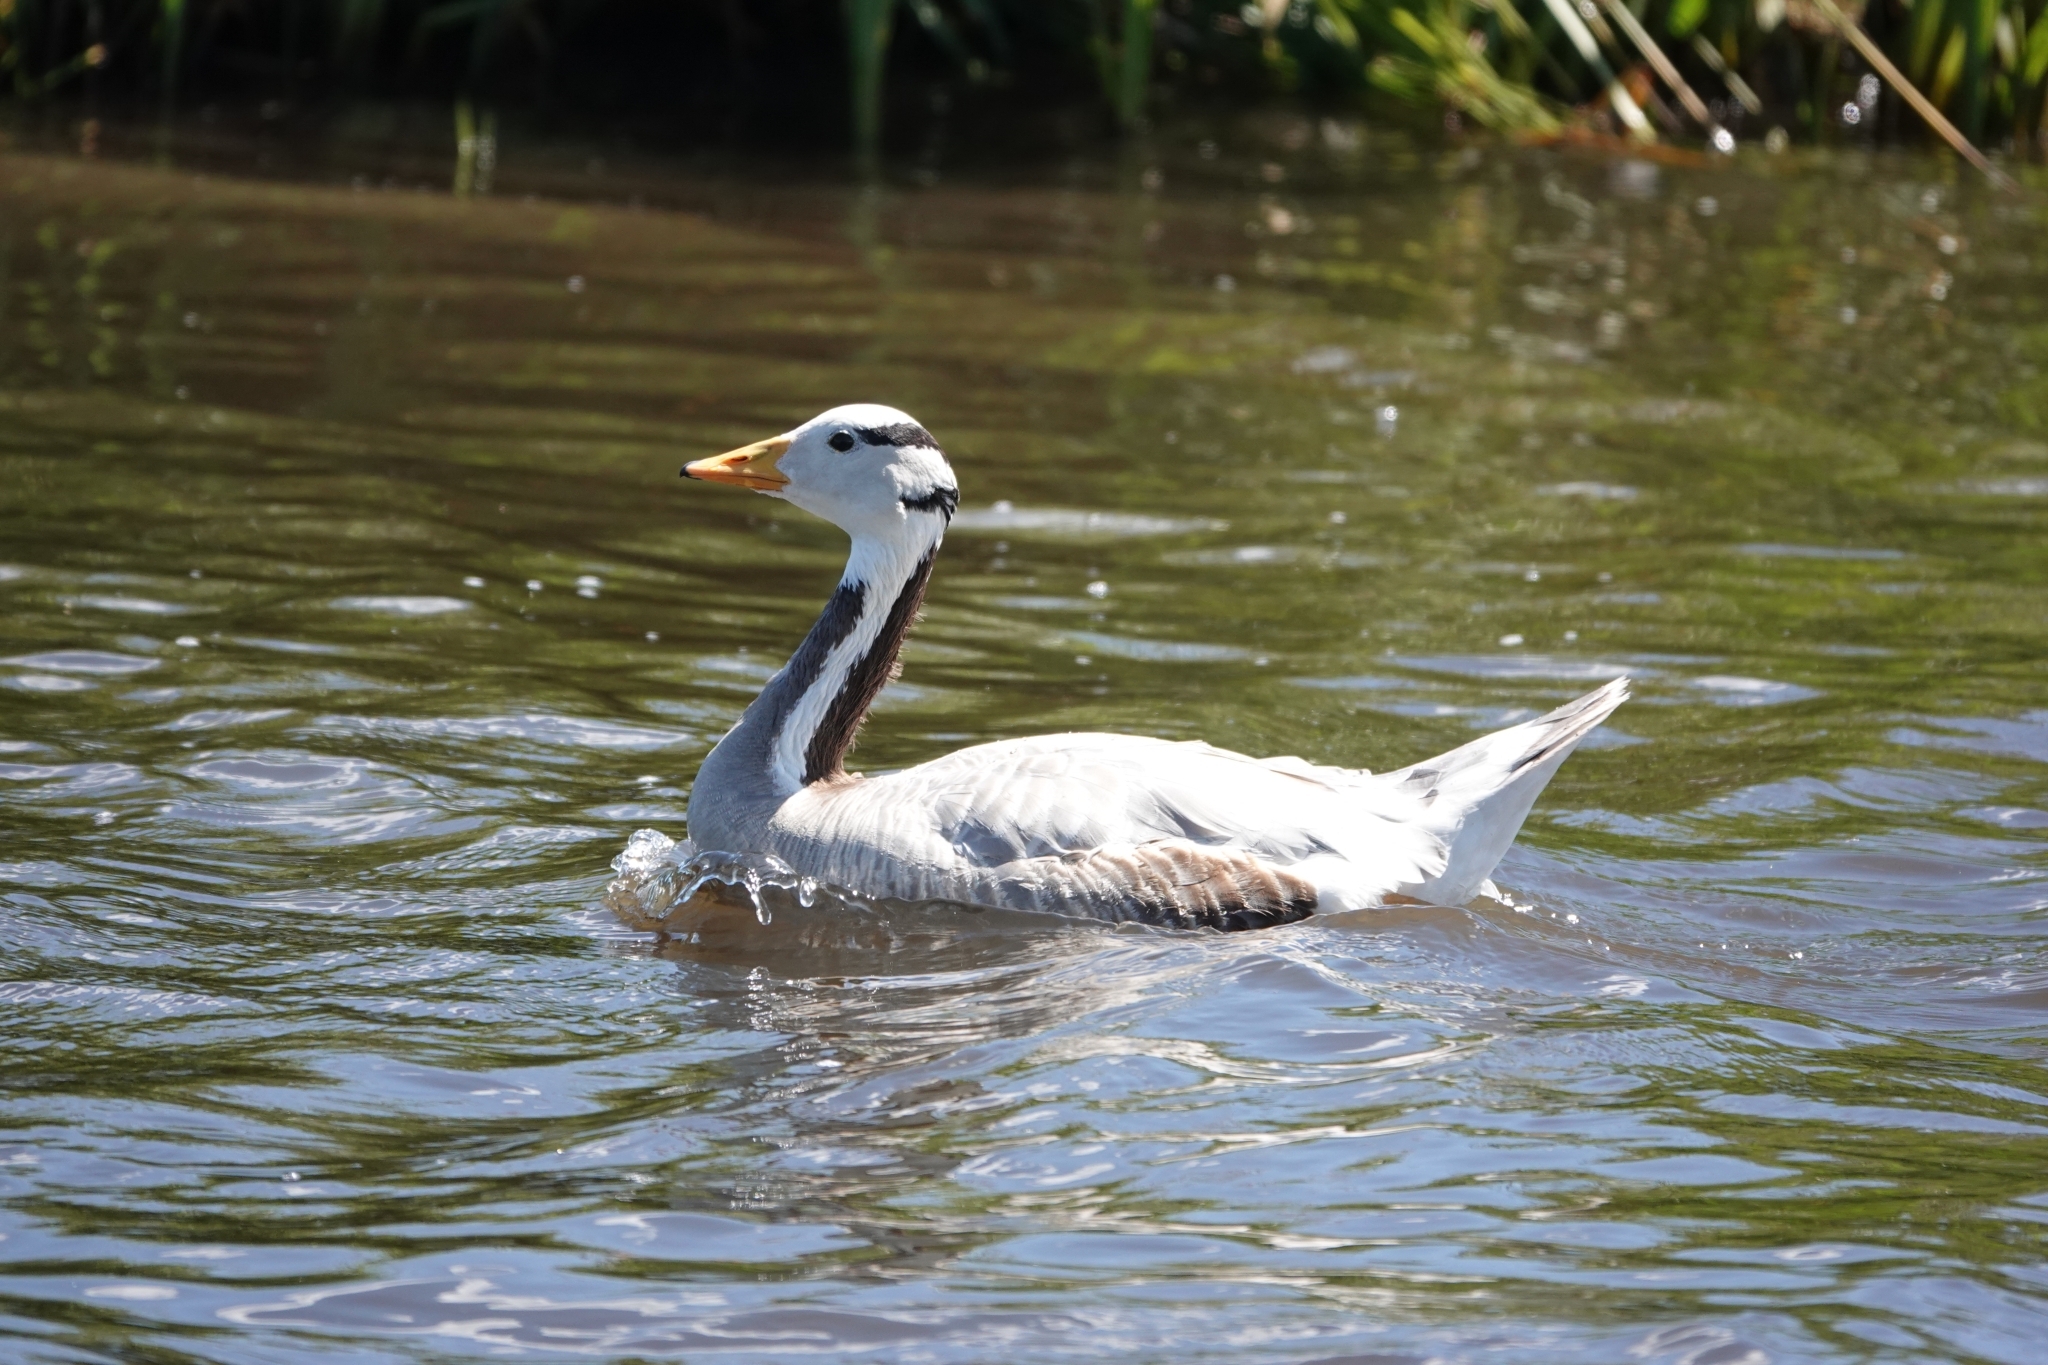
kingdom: Animalia
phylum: Chordata
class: Aves
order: Anseriformes
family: Anatidae
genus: Anser
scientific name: Anser indicus
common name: Bar-headed goose
